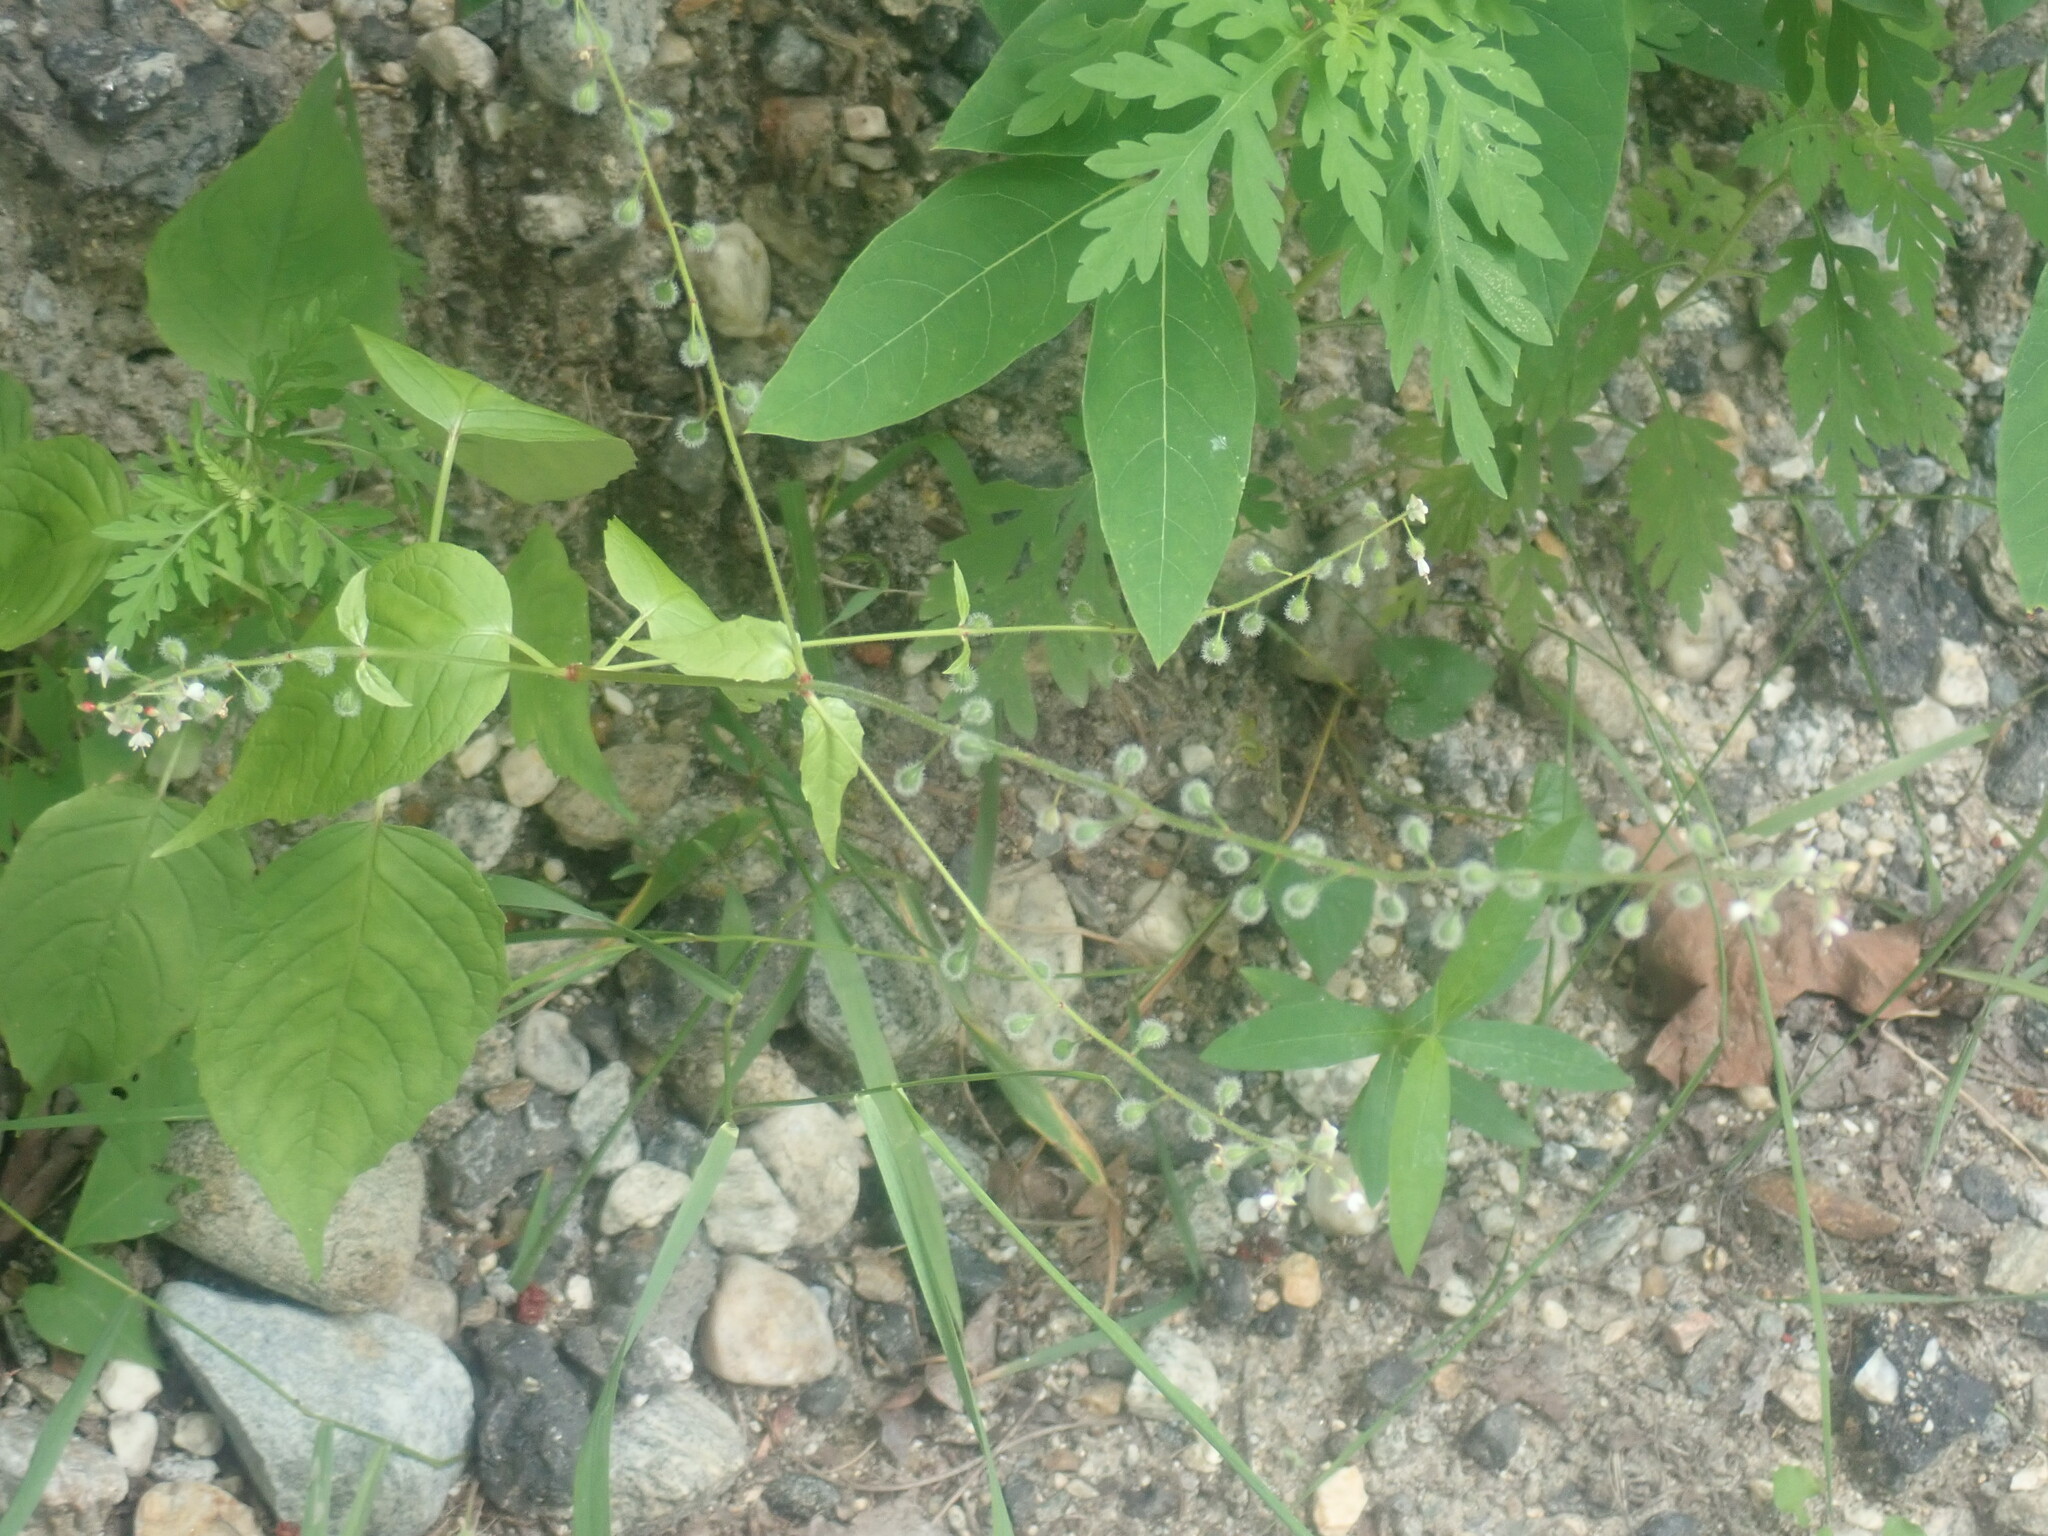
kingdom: Plantae
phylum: Tracheophyta
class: Magnoliopsida
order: Myrtales
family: Onagraceae
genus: Circaea
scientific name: Circaea canadensis
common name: Broad-leaved enchanter's nightshade
